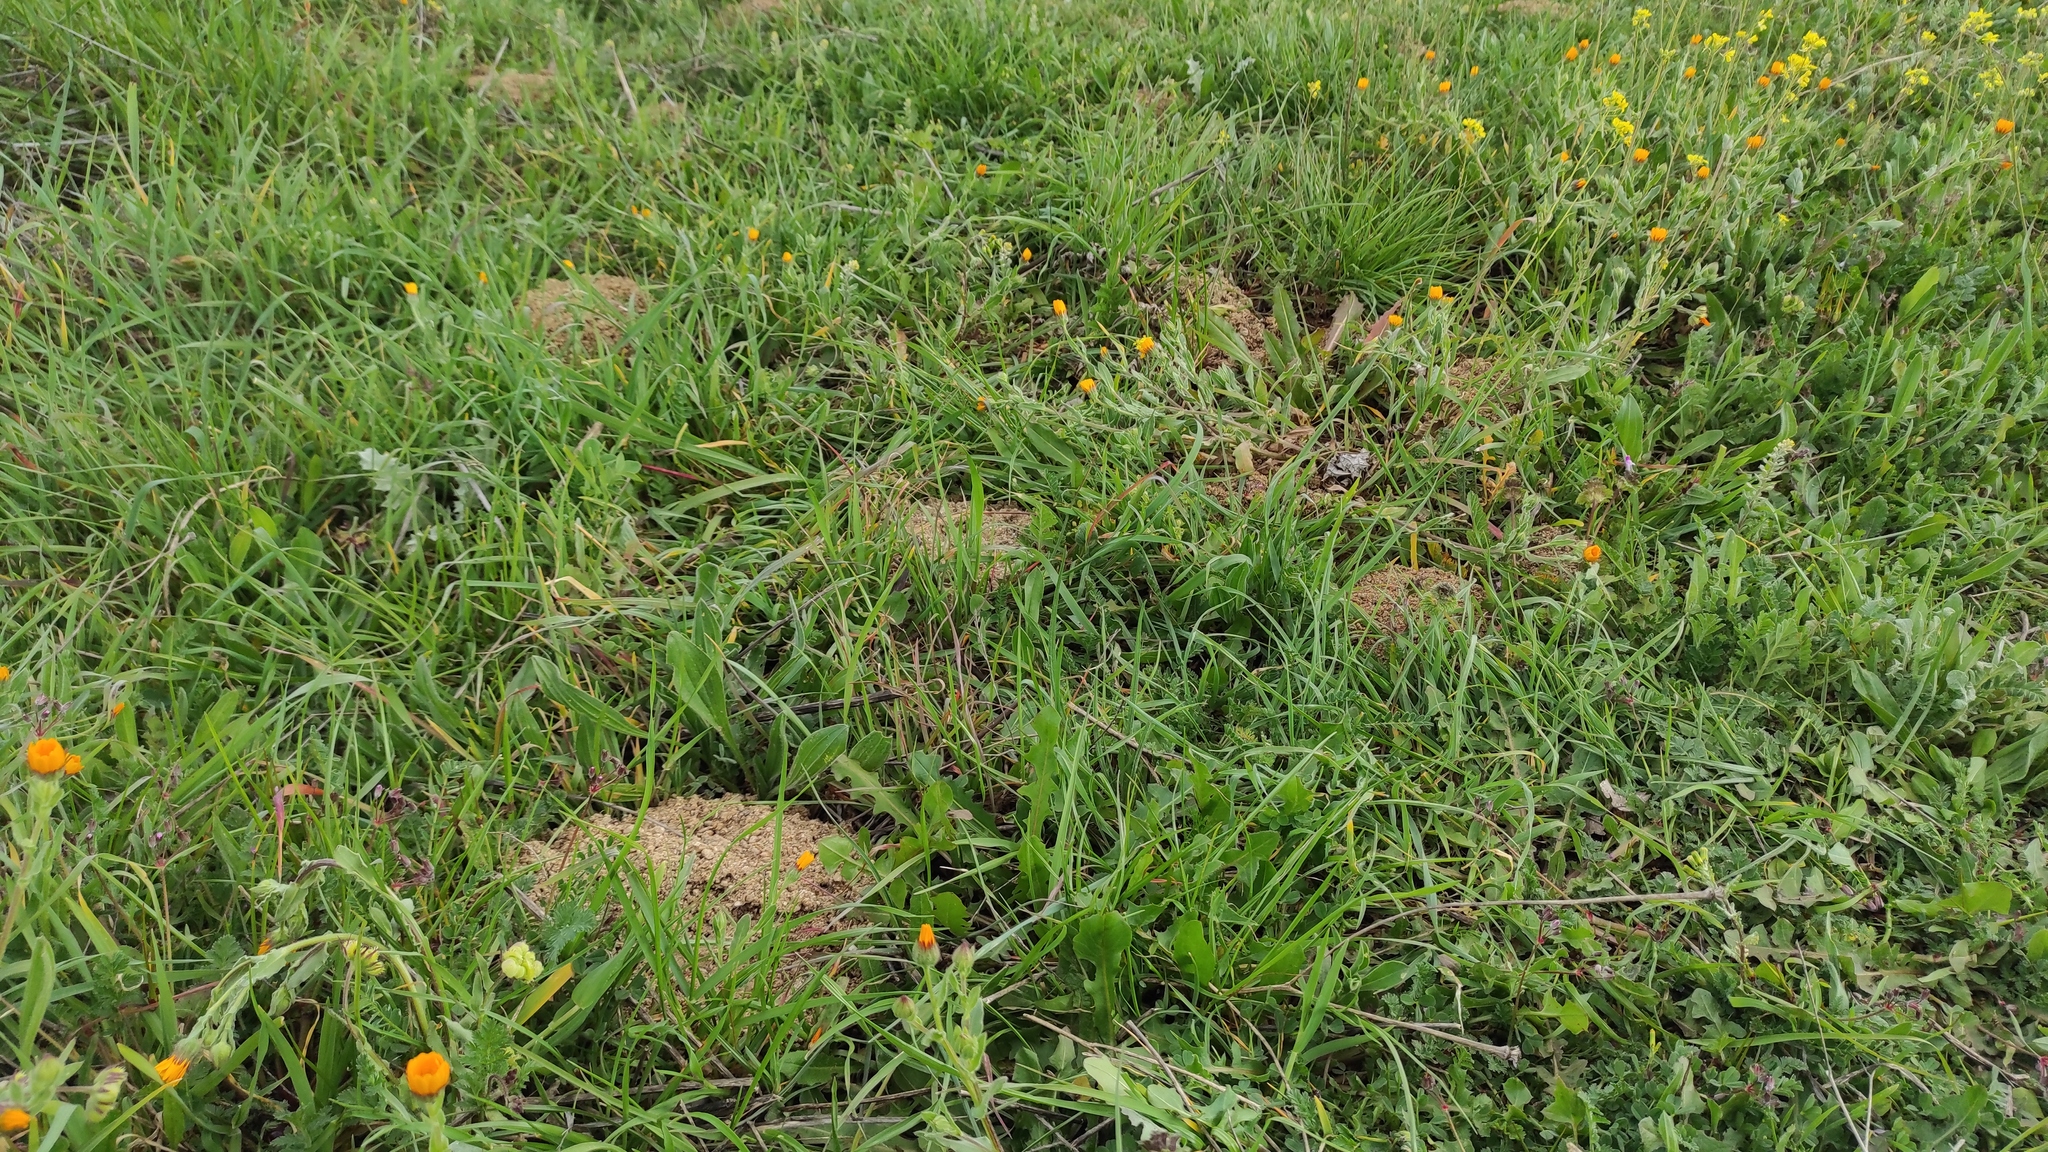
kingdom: Animalia
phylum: Chordata
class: Mammalia
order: Rodentia
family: Cricetidae
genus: Microtus
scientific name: Microtus duodecimcostatus
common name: Mediterranean pine vole
